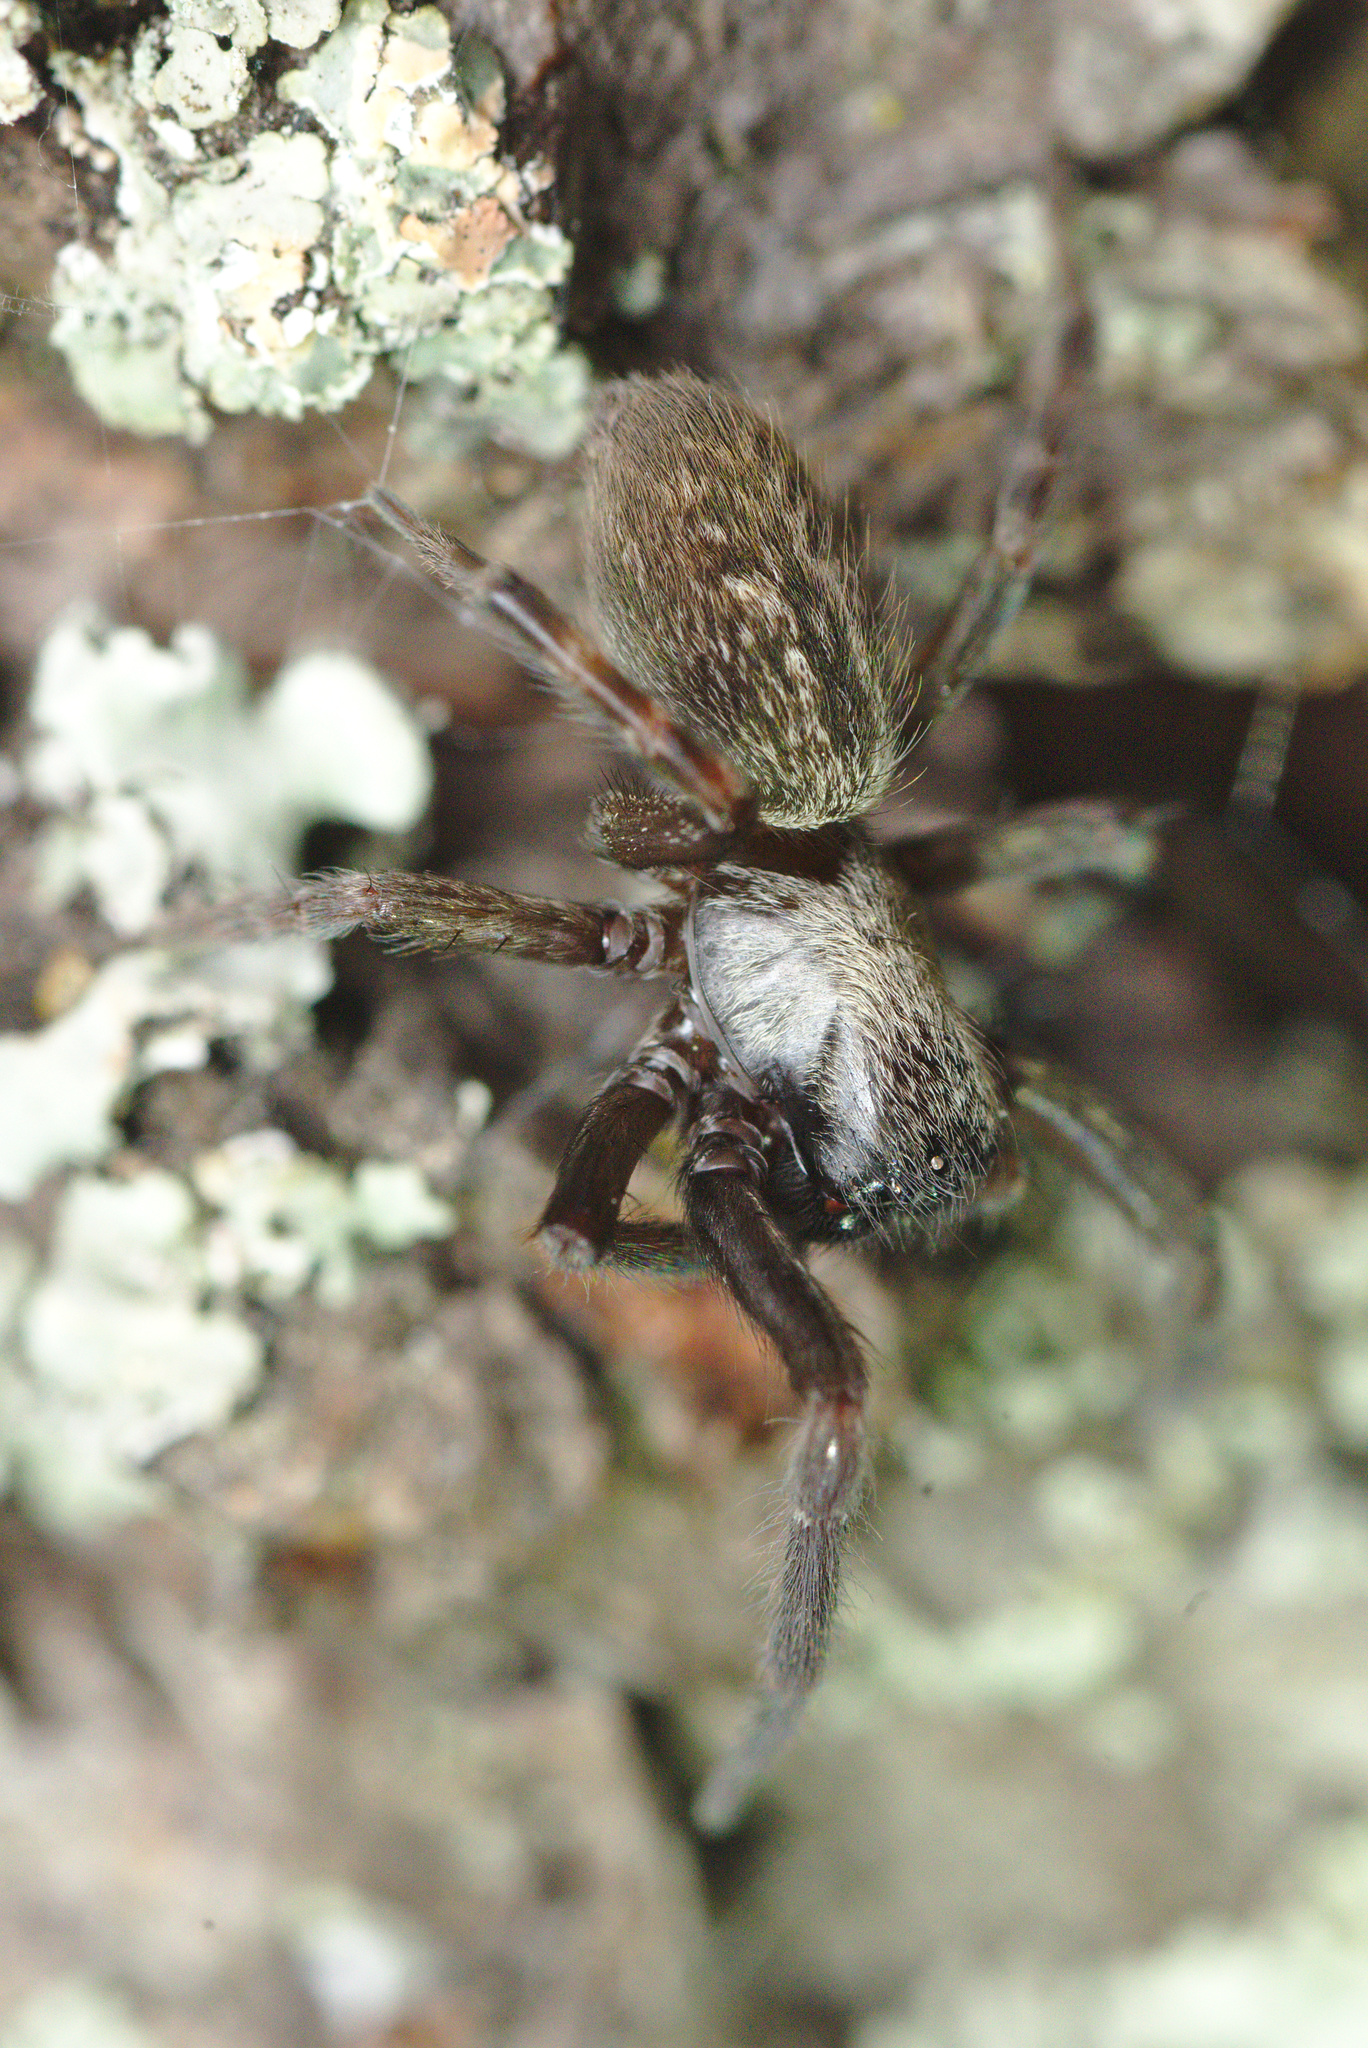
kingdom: Animalia
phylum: Arthropoda
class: Arachnida
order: Araneae
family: Desidae
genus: Badumna
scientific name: Badumna longinqua
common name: Gray house spider
